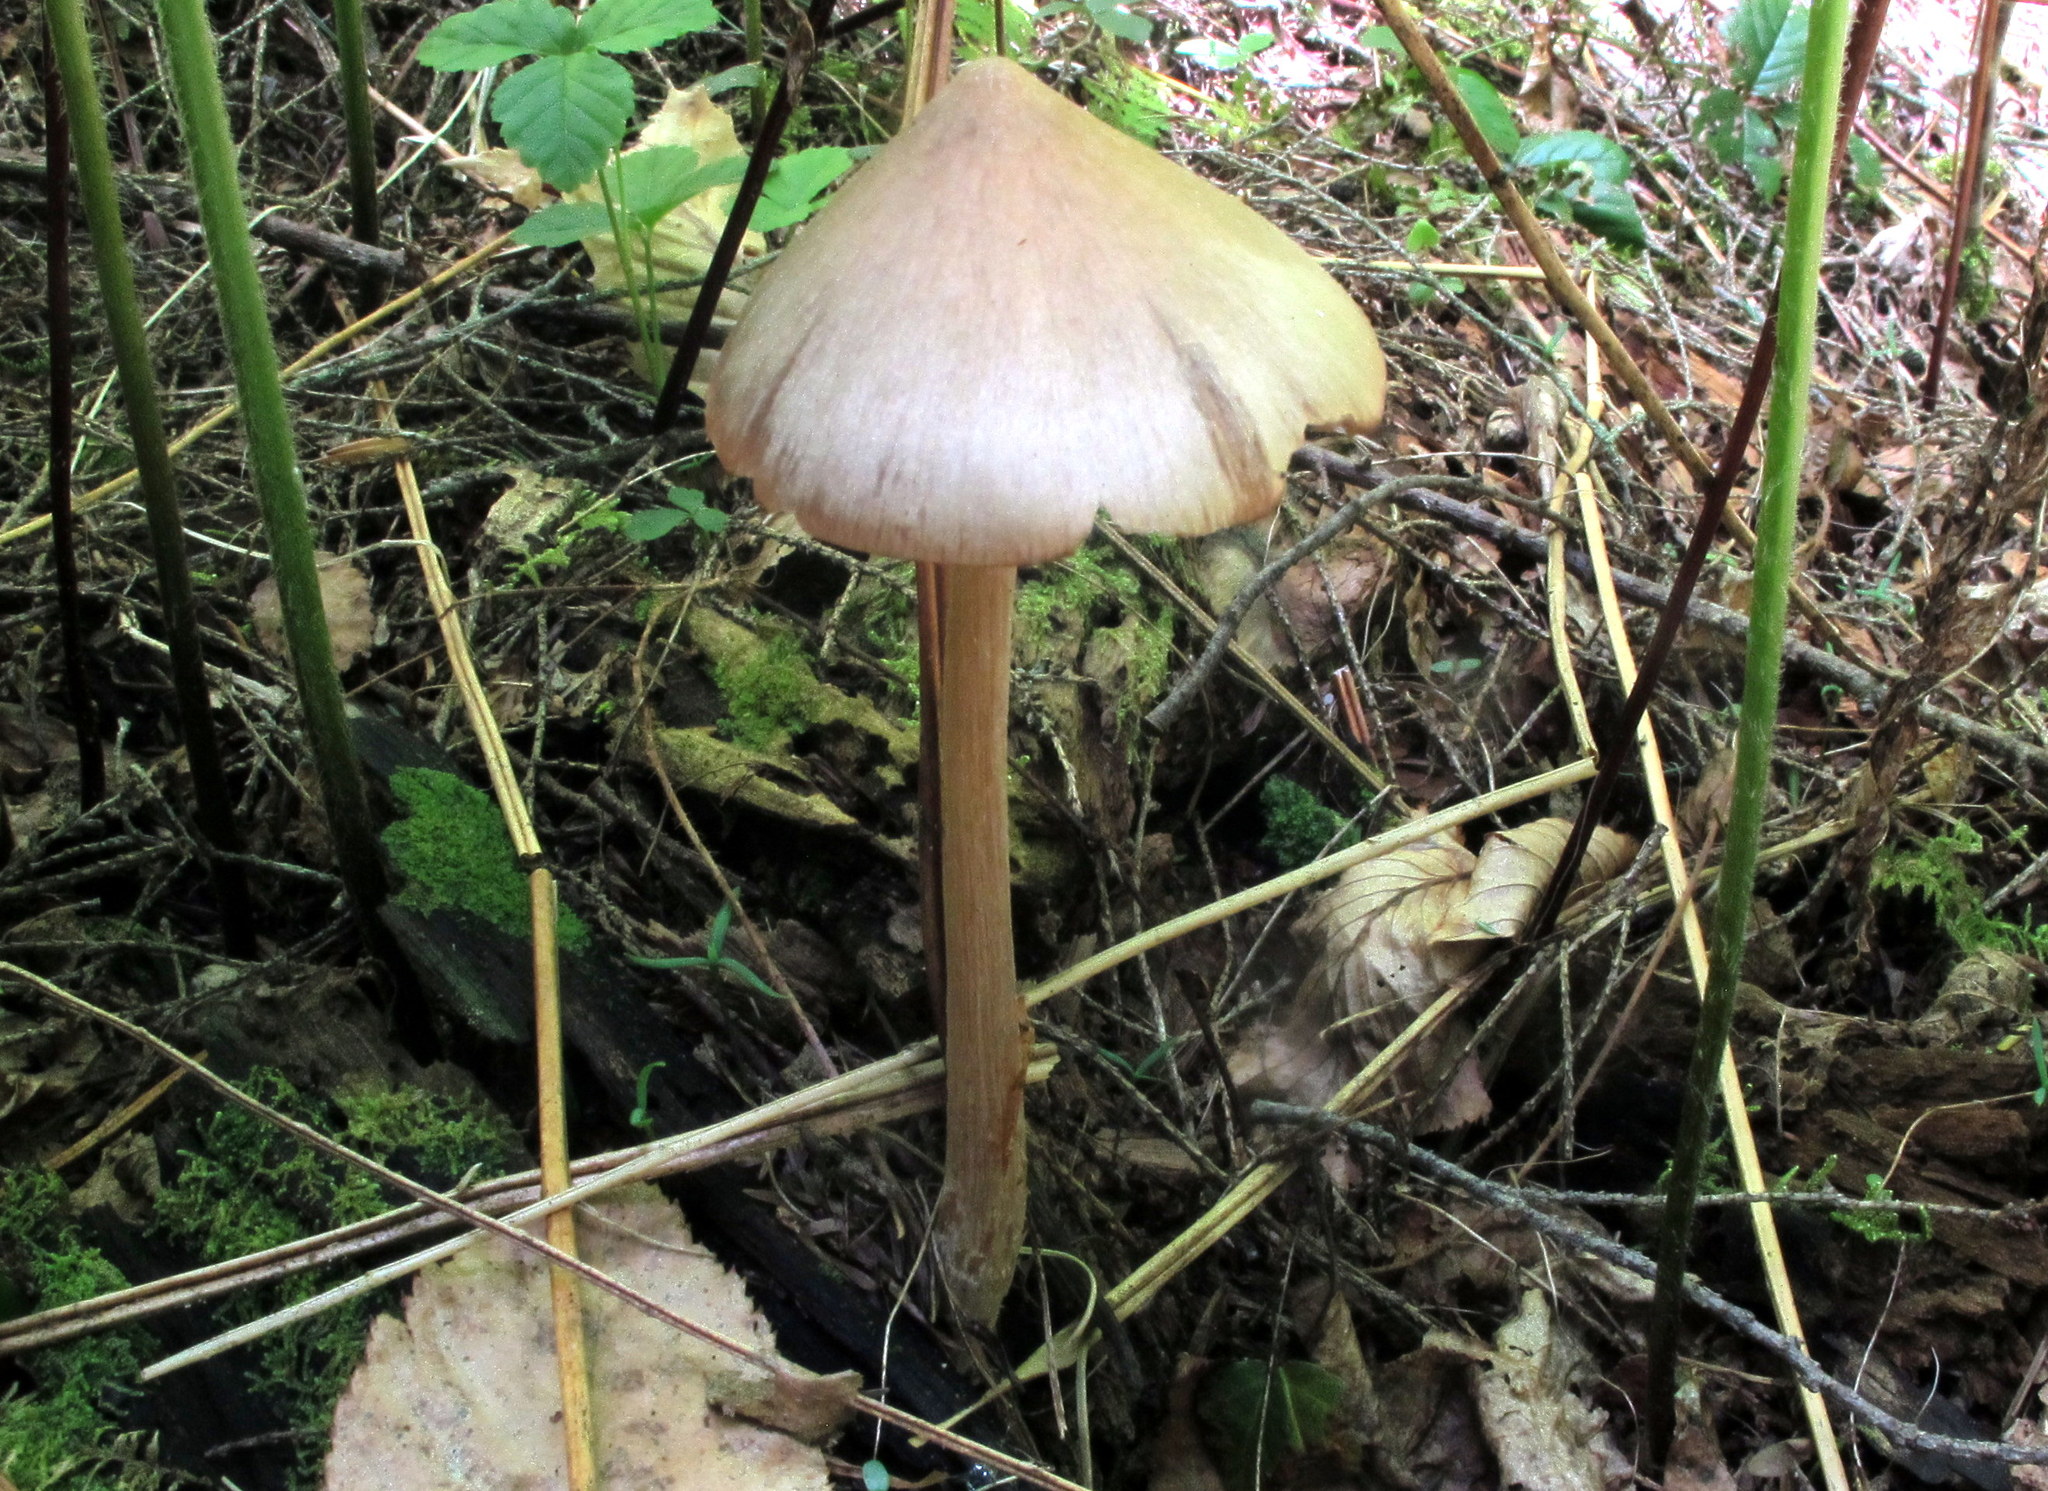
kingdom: Fungi
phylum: Basidiomycota
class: Agaricomycetes
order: Agaricales
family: Entolomataceae
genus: Entoloma
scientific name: Entoloma strictius
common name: Straight-stalked entoloma
